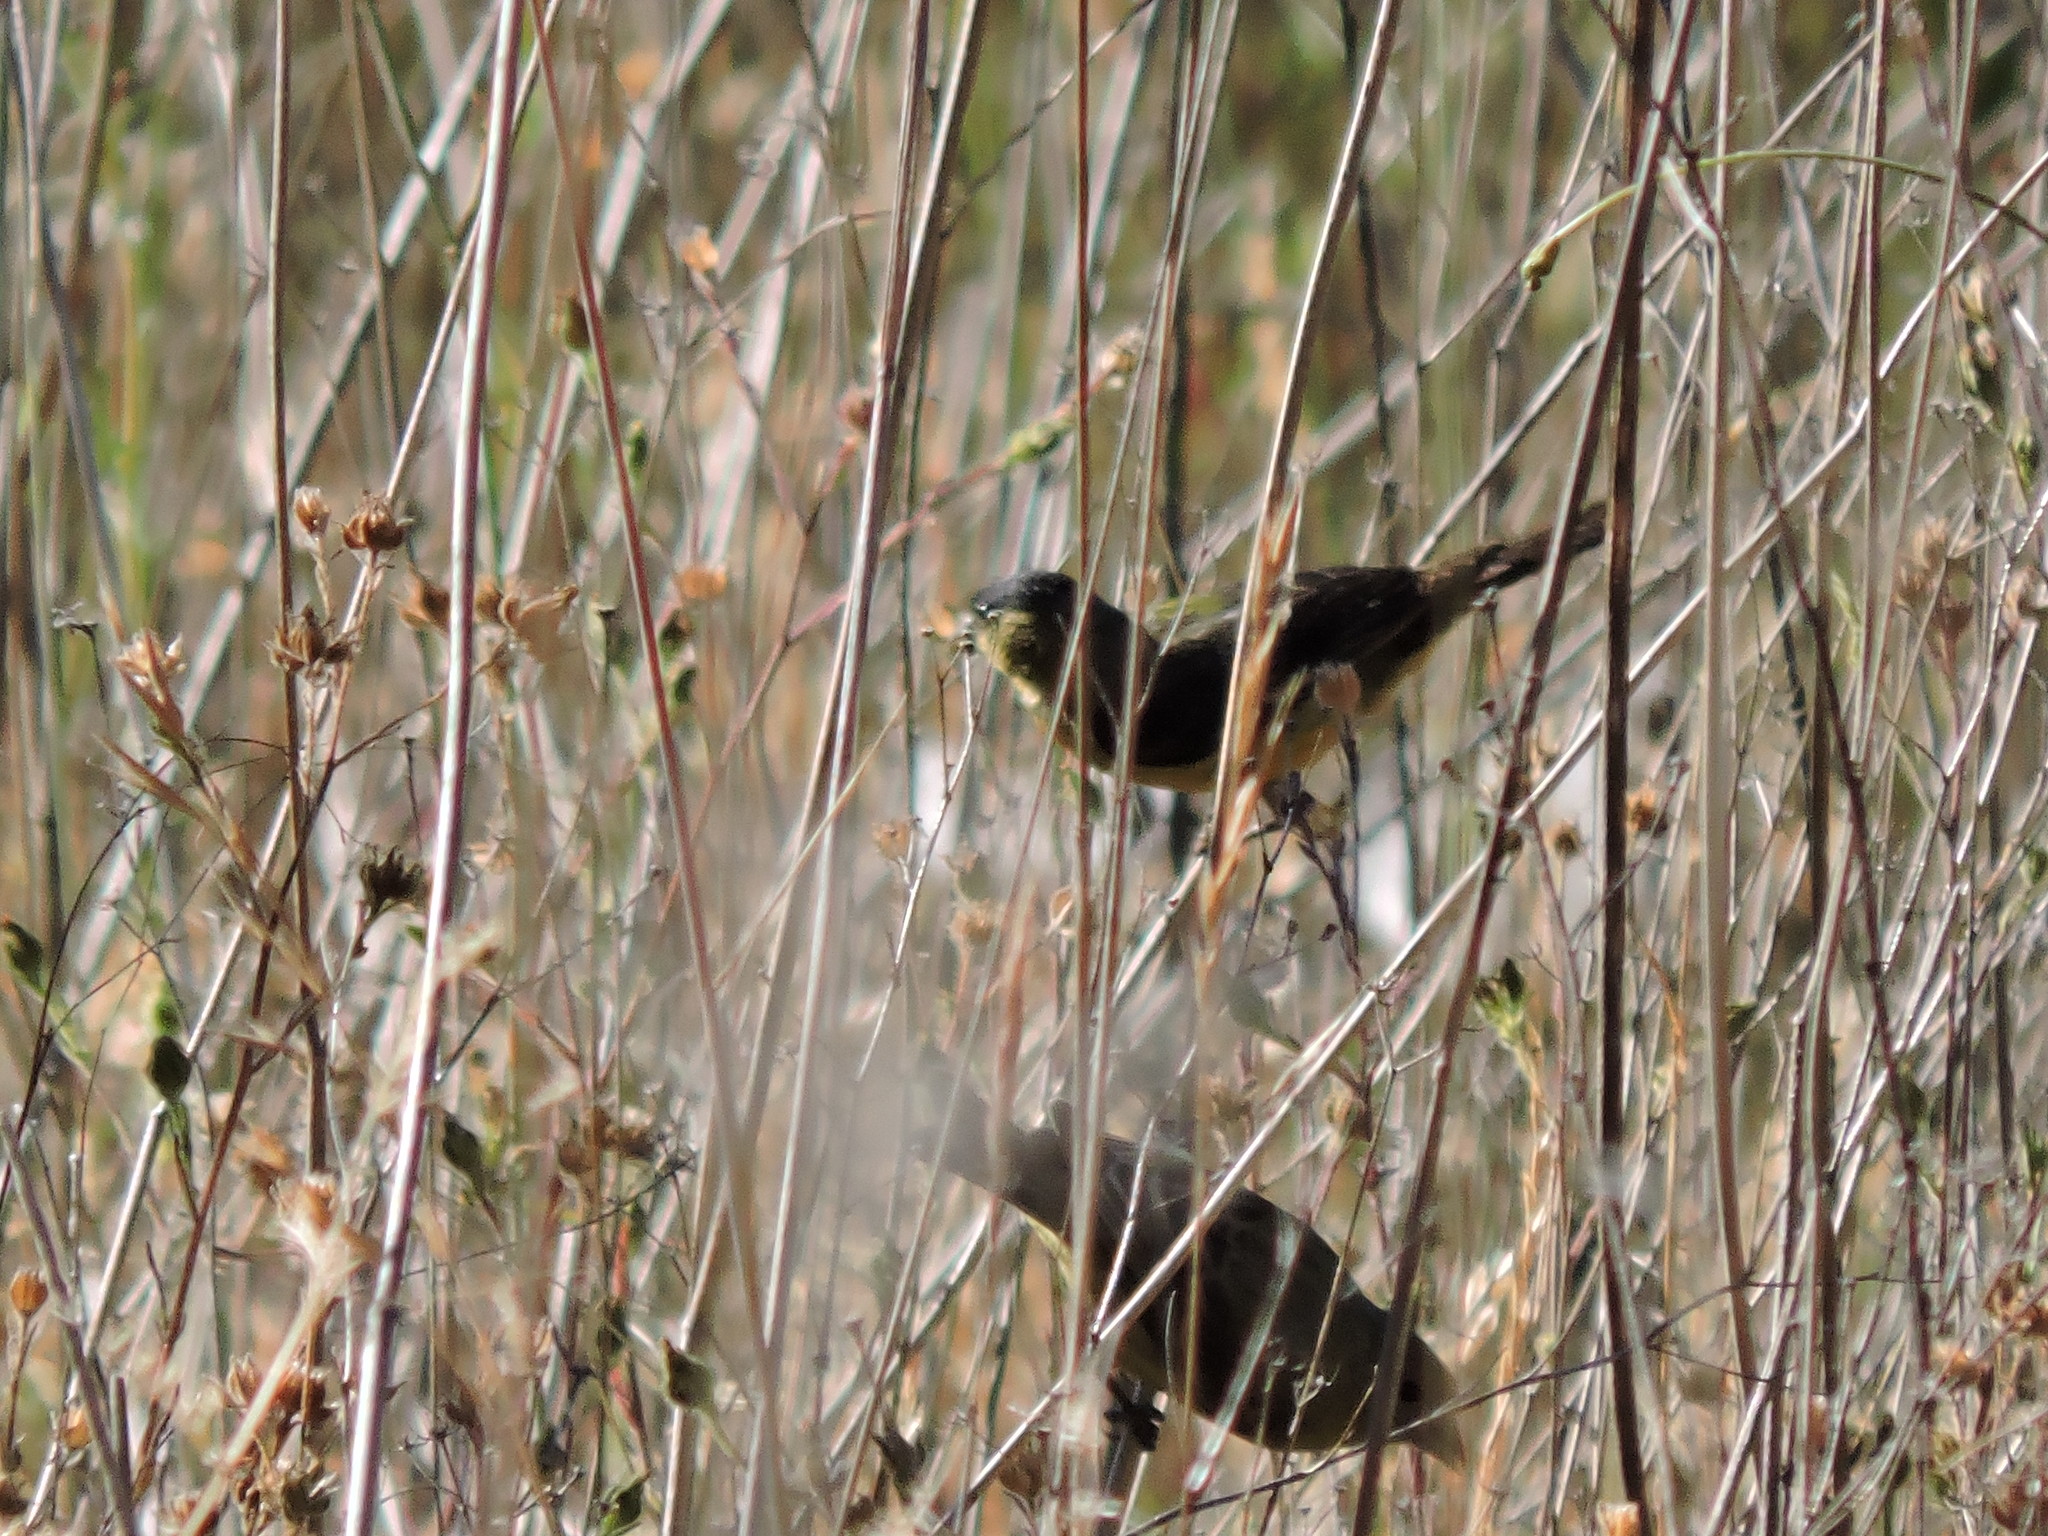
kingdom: Animalia
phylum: Chordata
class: Aves
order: Passeriformes
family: Fringillidae
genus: Spinus
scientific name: Spinus psaltria
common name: Lesser goldfinch
